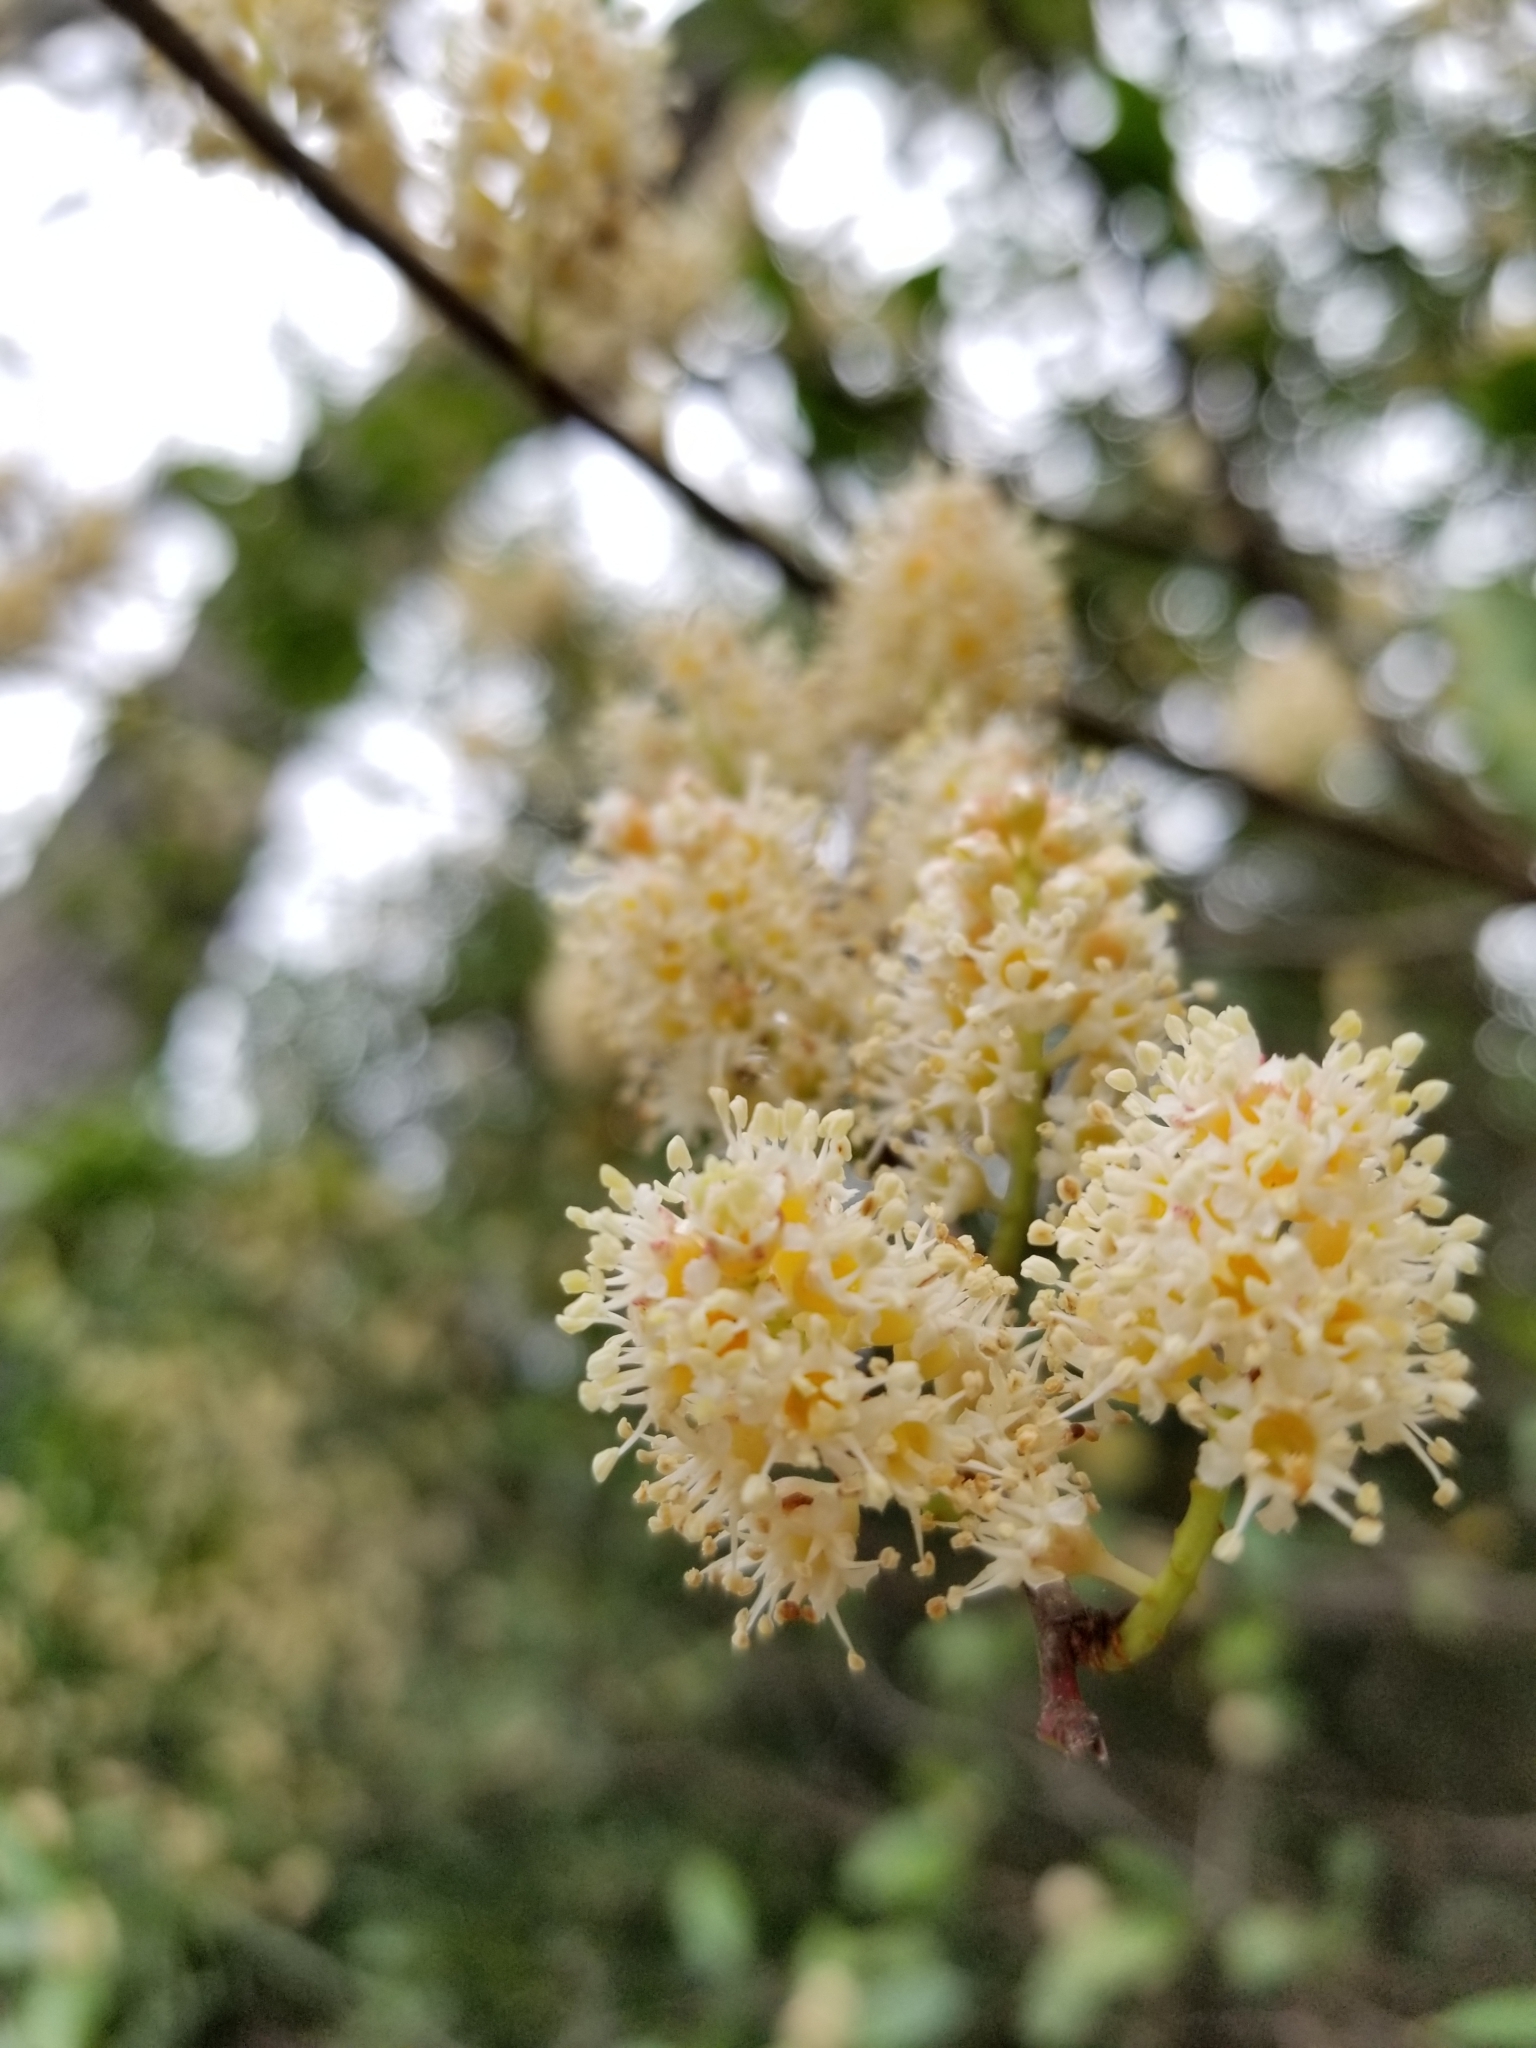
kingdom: Plantae
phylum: Tracheophyta
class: Magnoliopsida
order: Rosales
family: Rosaceae
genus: Prunus
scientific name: Prunus caroliniana
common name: Carolina laurel cherry
